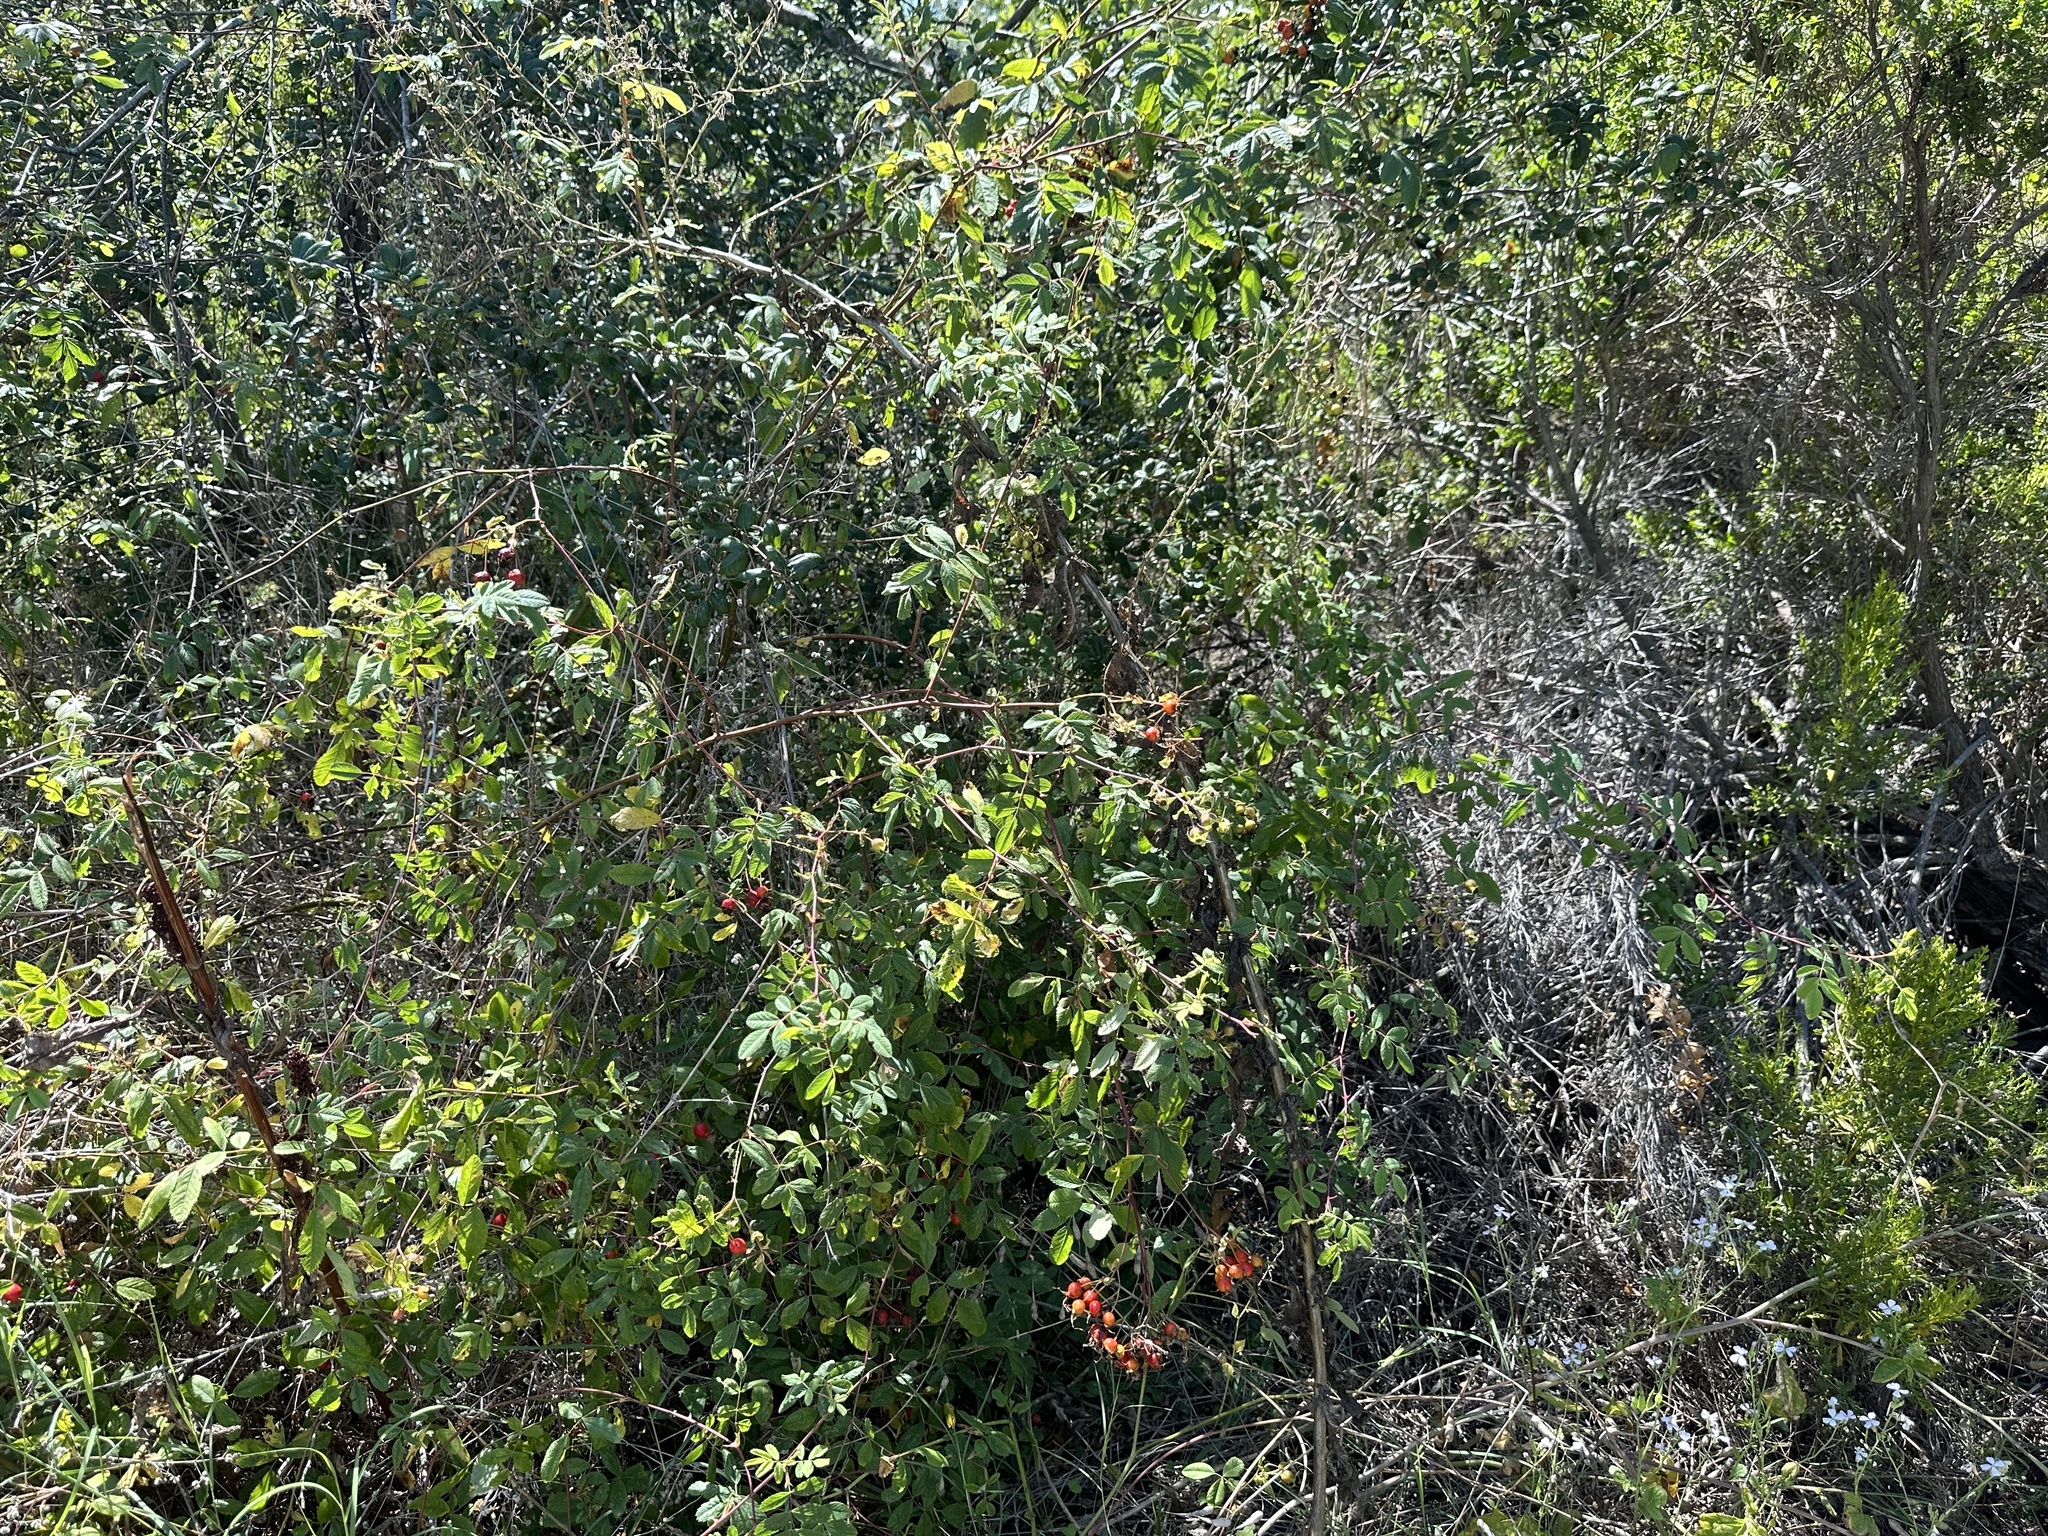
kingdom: Plantae
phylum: Tracheophyta
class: Magnoliopsida
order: Rosales
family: Rosaceae
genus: Rosa
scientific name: Rosa californica
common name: California rose
